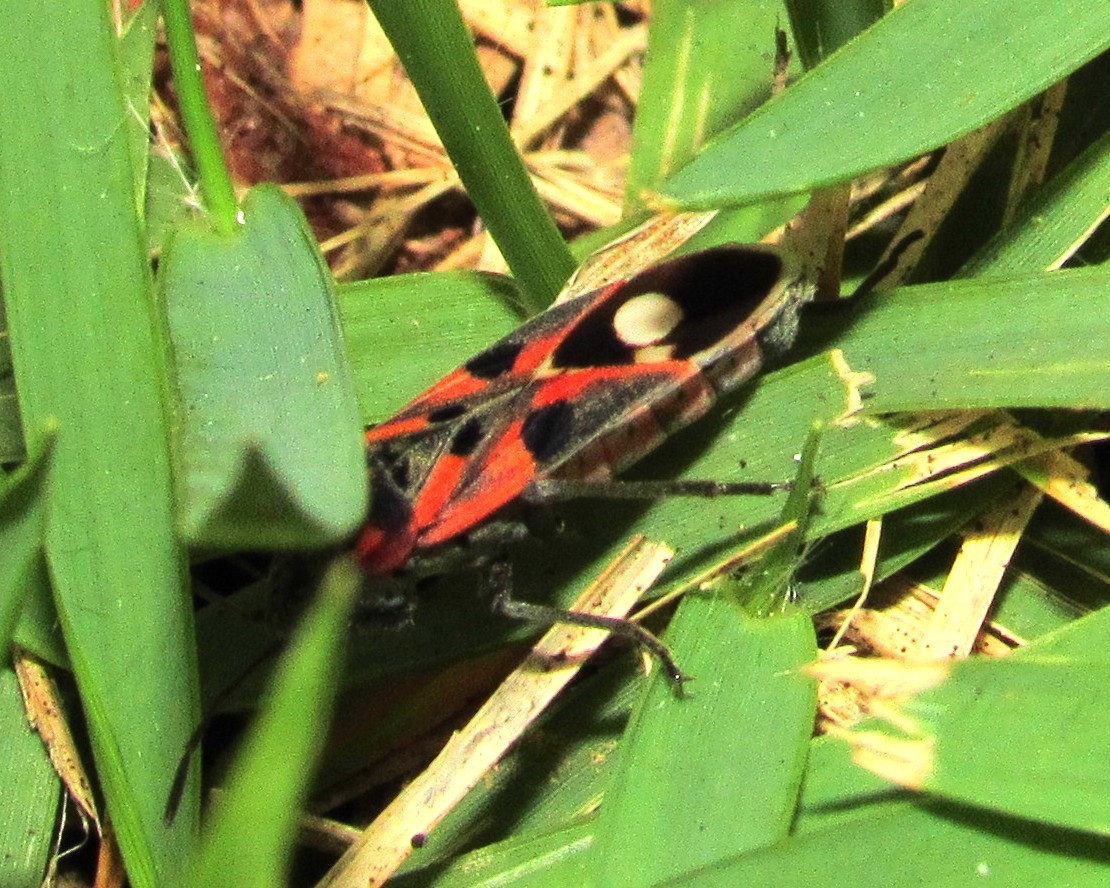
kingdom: Animalia
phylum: Arthropoda
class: Insecta
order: Hemiptera
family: Lygaeidae
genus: Lygaeus
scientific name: Lygaeus alboornatus
